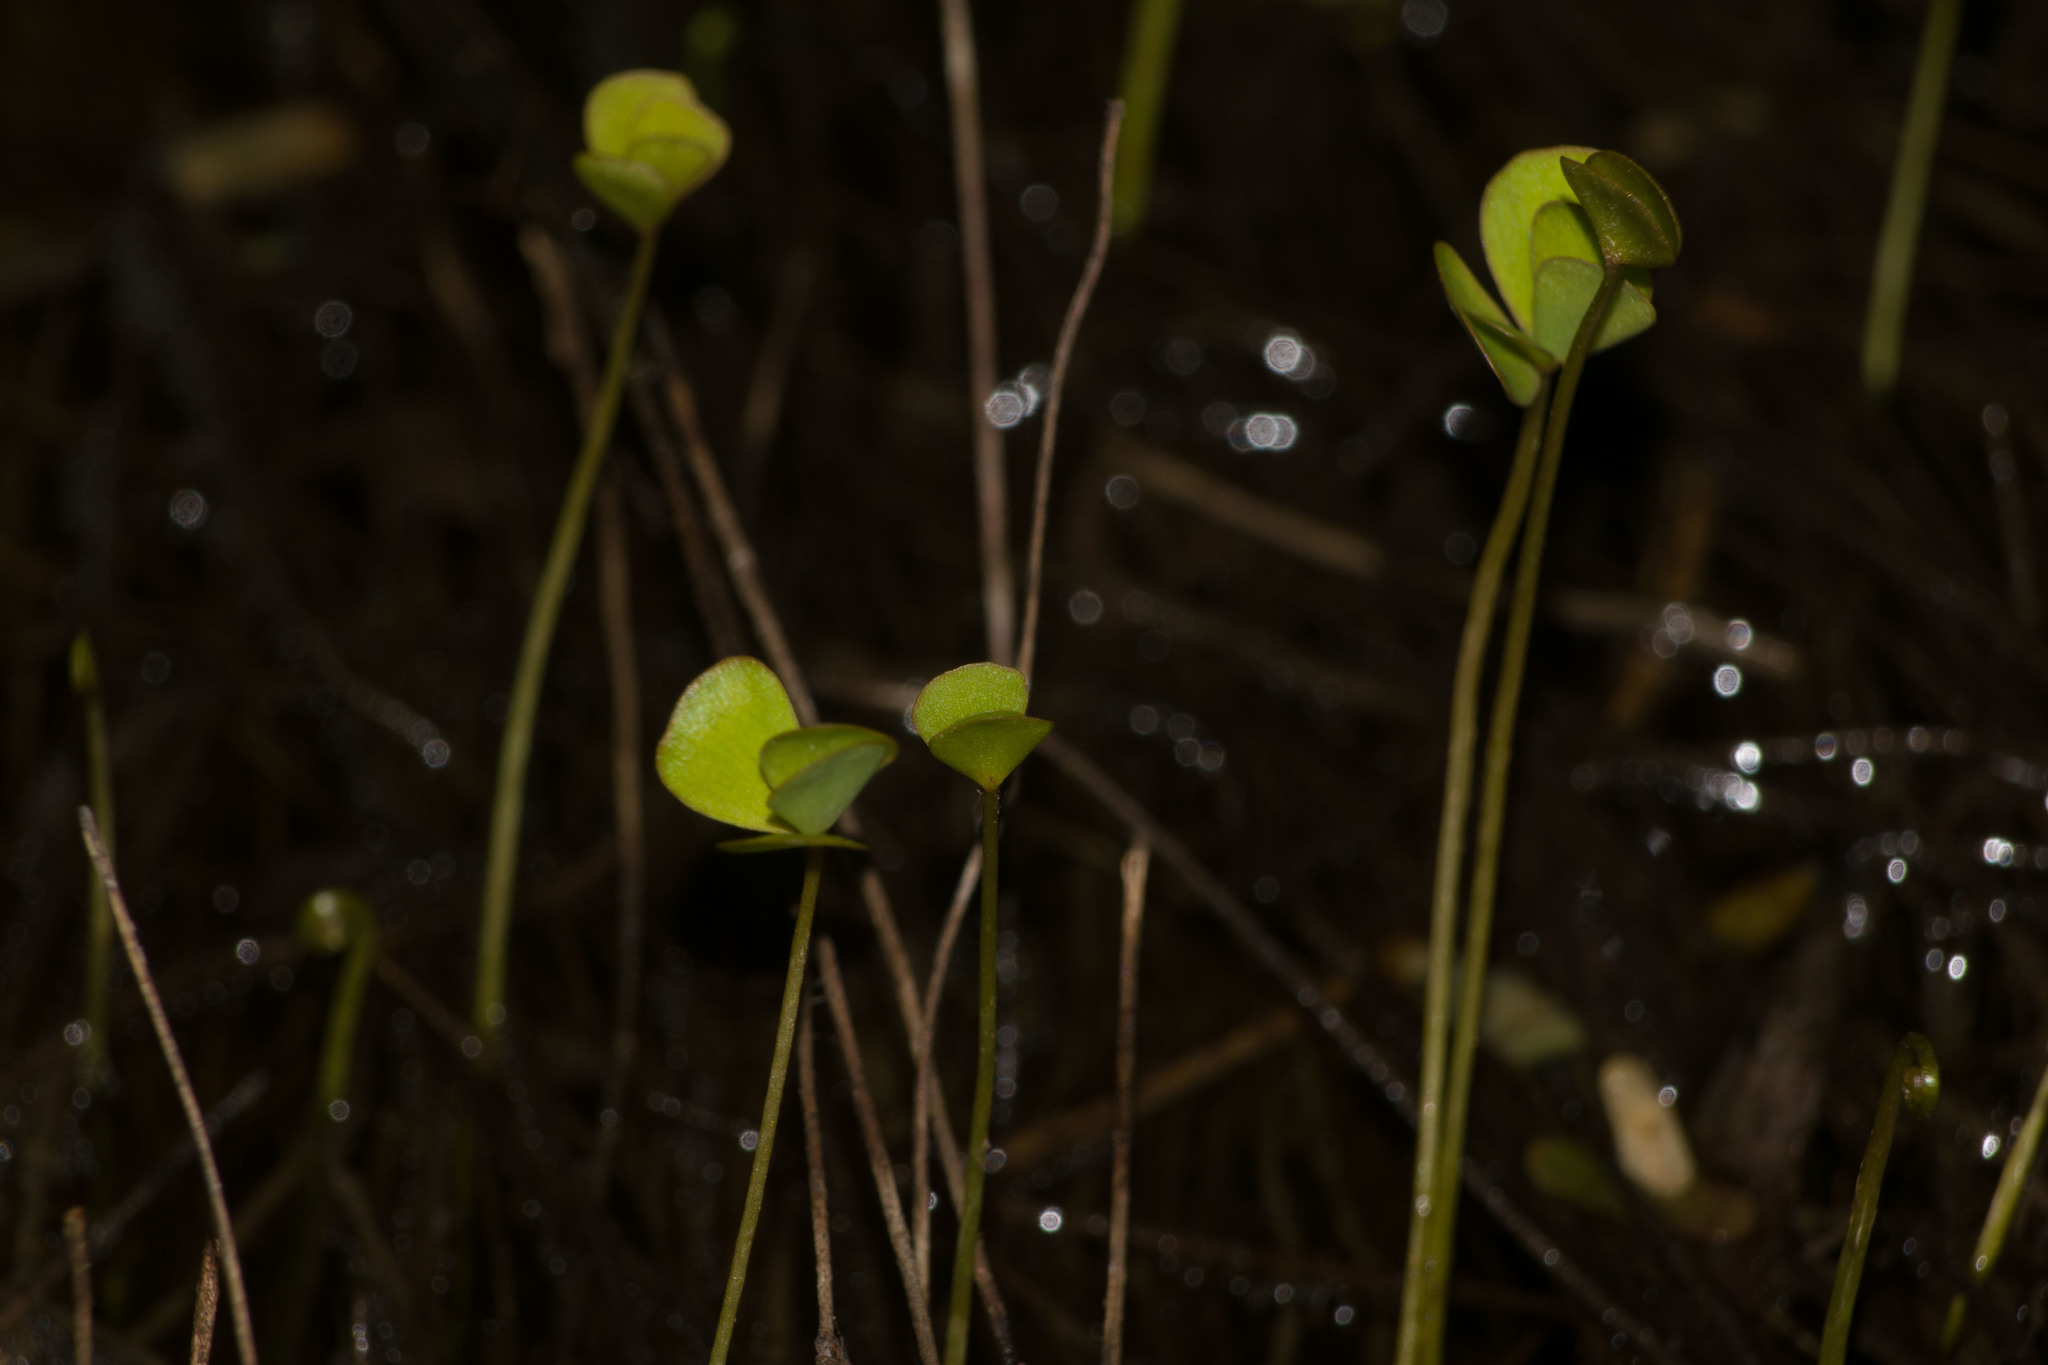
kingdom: Plantae
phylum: Tracheophyta
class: Polypodiopsida
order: Salviniales
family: Marsileaceae
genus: Marsilea
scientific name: Marsilea villosa
